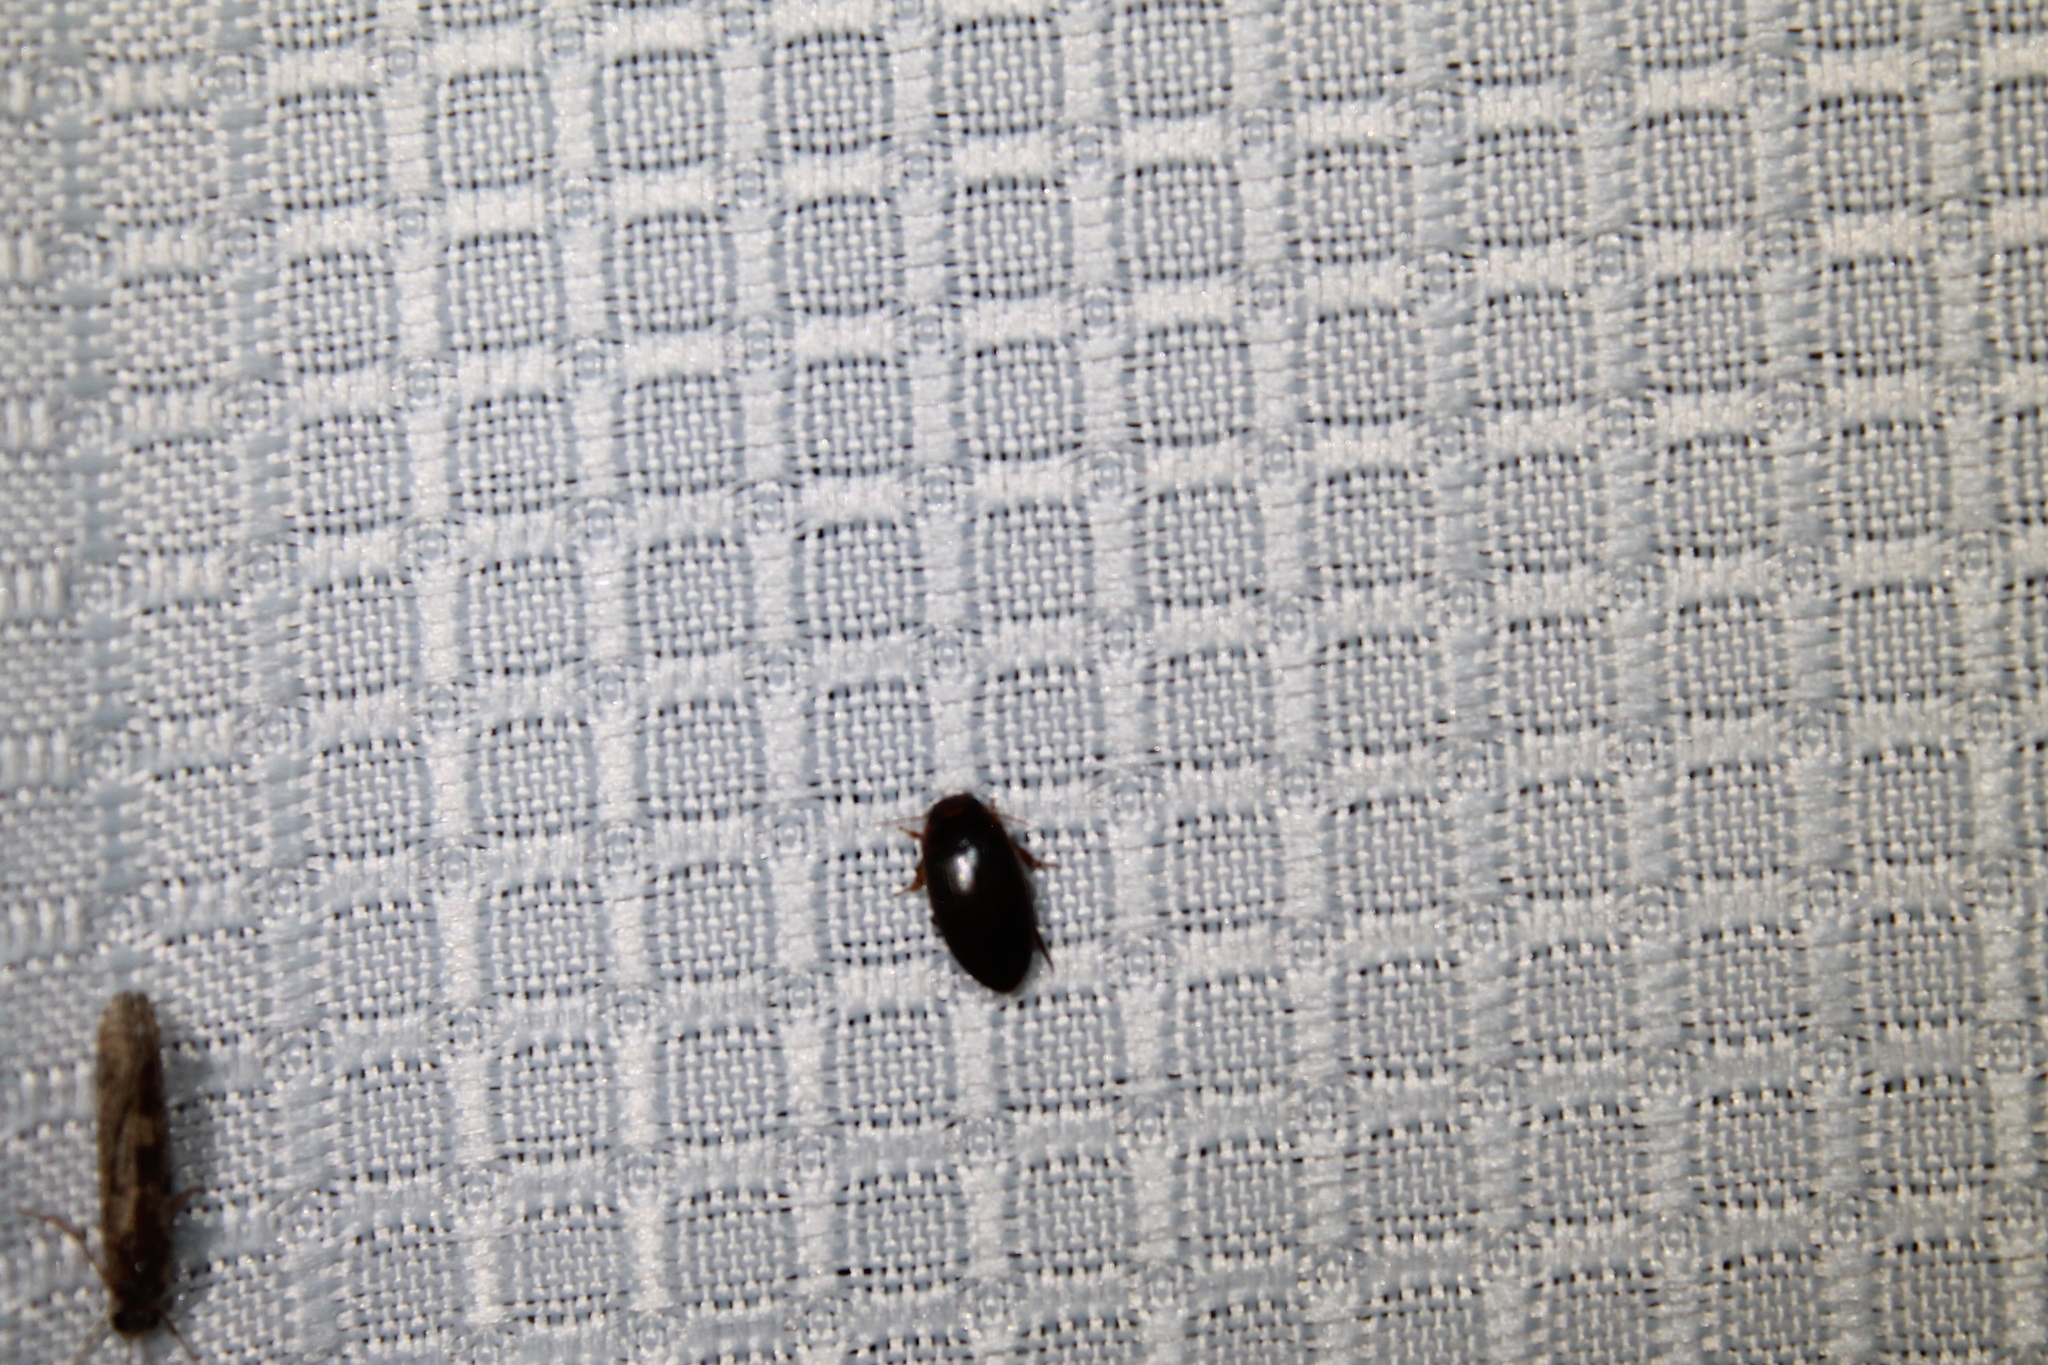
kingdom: Animalia
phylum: Arthropoda
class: Insecta
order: Coleoptera
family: Dytiscidae
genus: Copelatus
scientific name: Copelatus chevrolati
